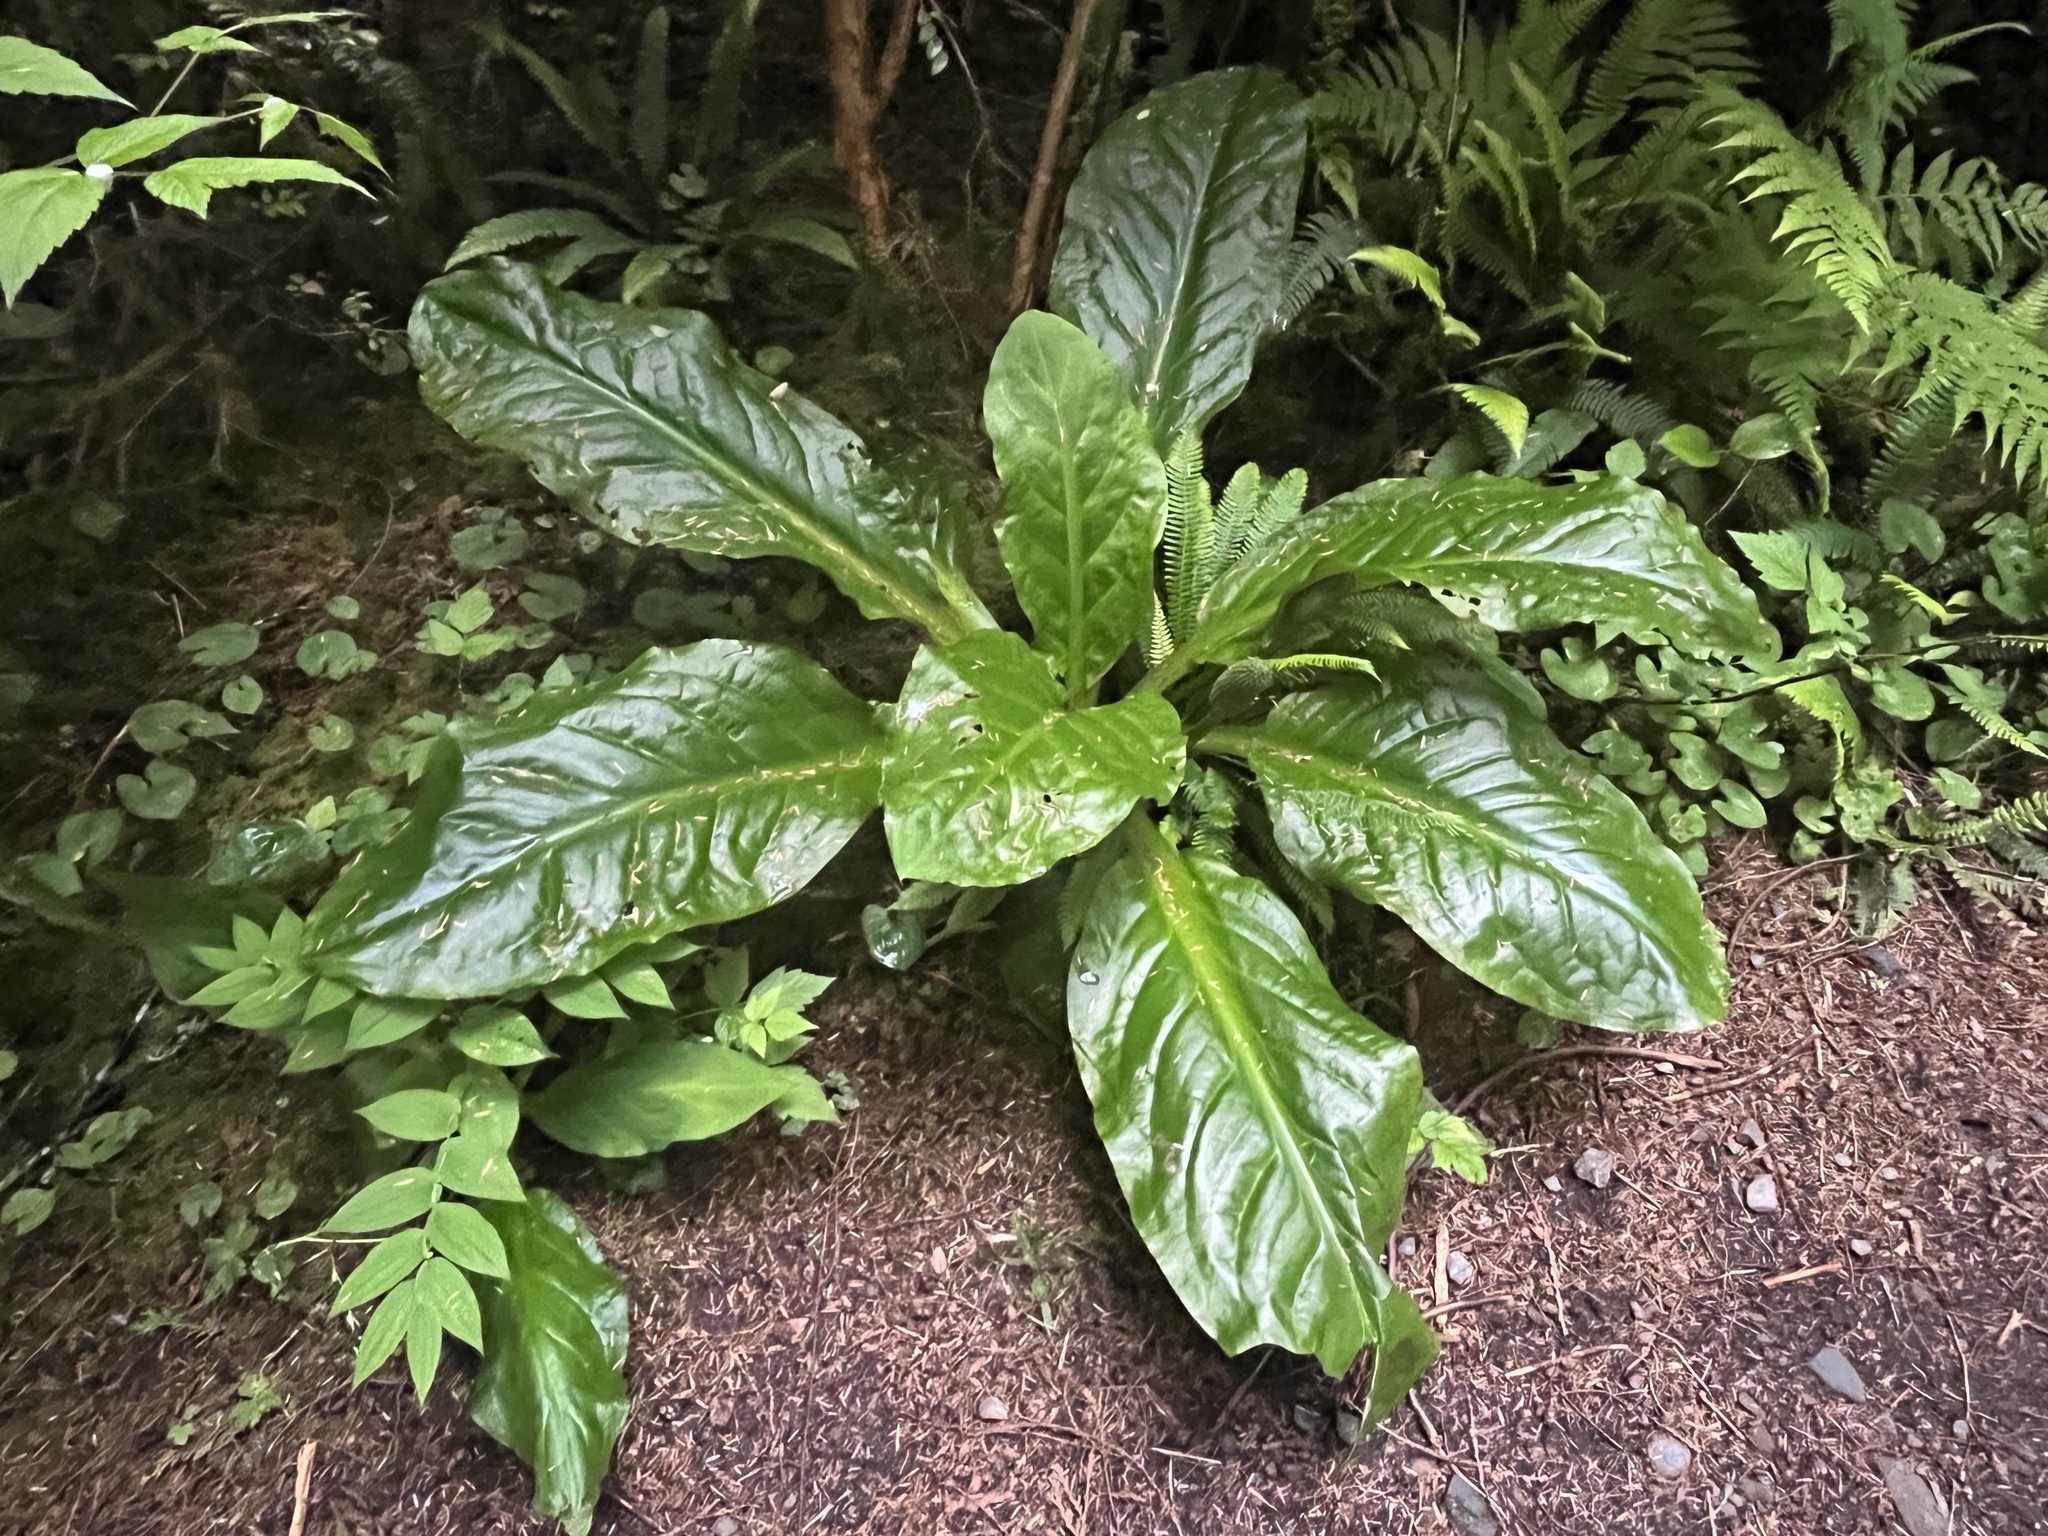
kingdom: Plantae
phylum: Tracheophyta
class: Liliopsida
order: Alismatales
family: Araceae
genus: Lysichiton
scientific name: Lysichiton americanus
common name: American skunk cabbage
